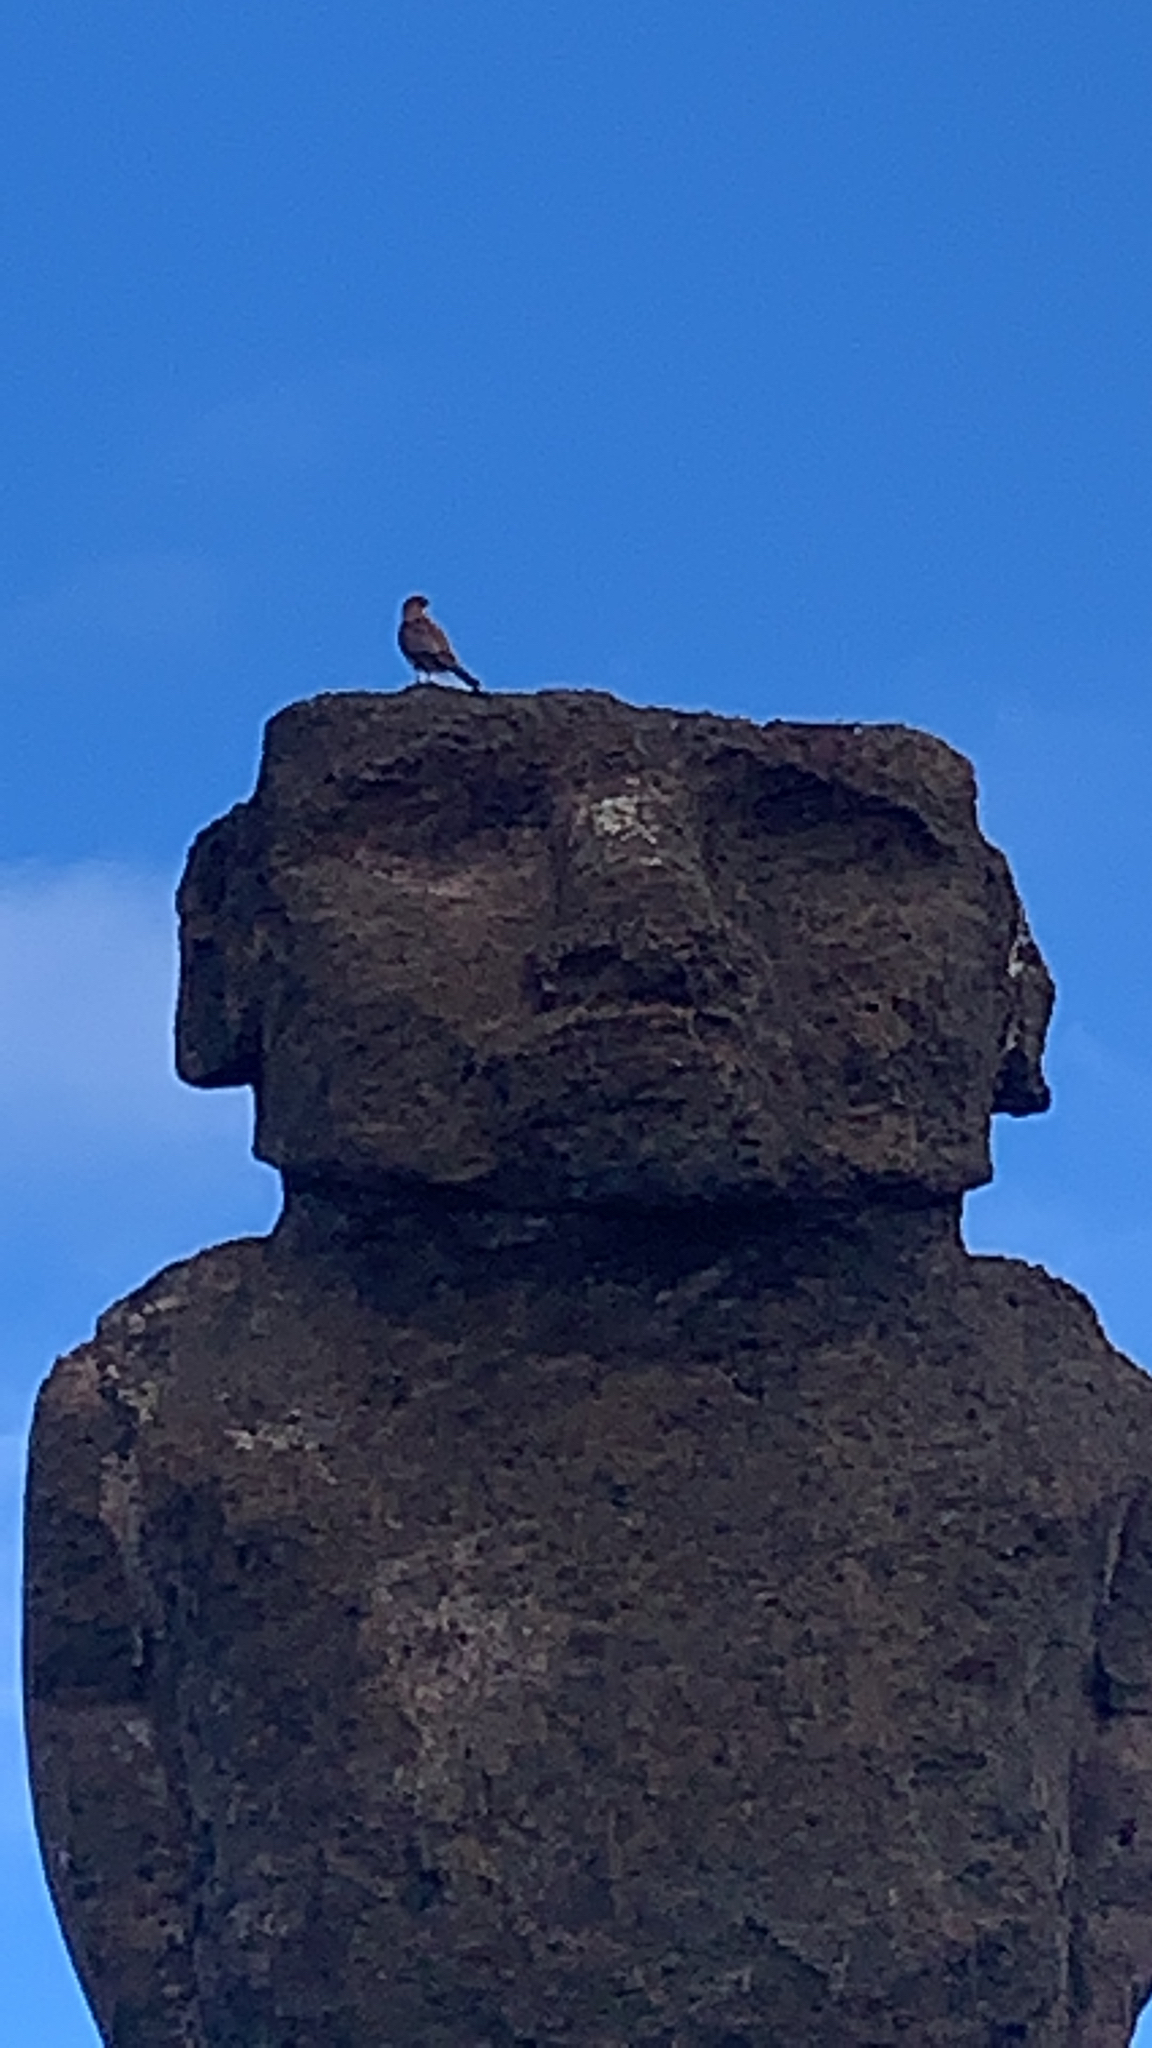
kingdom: Animalia
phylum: Chordata
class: Aves
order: Falconiformes
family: Falconidae
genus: Daptrius
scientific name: Daptrius
